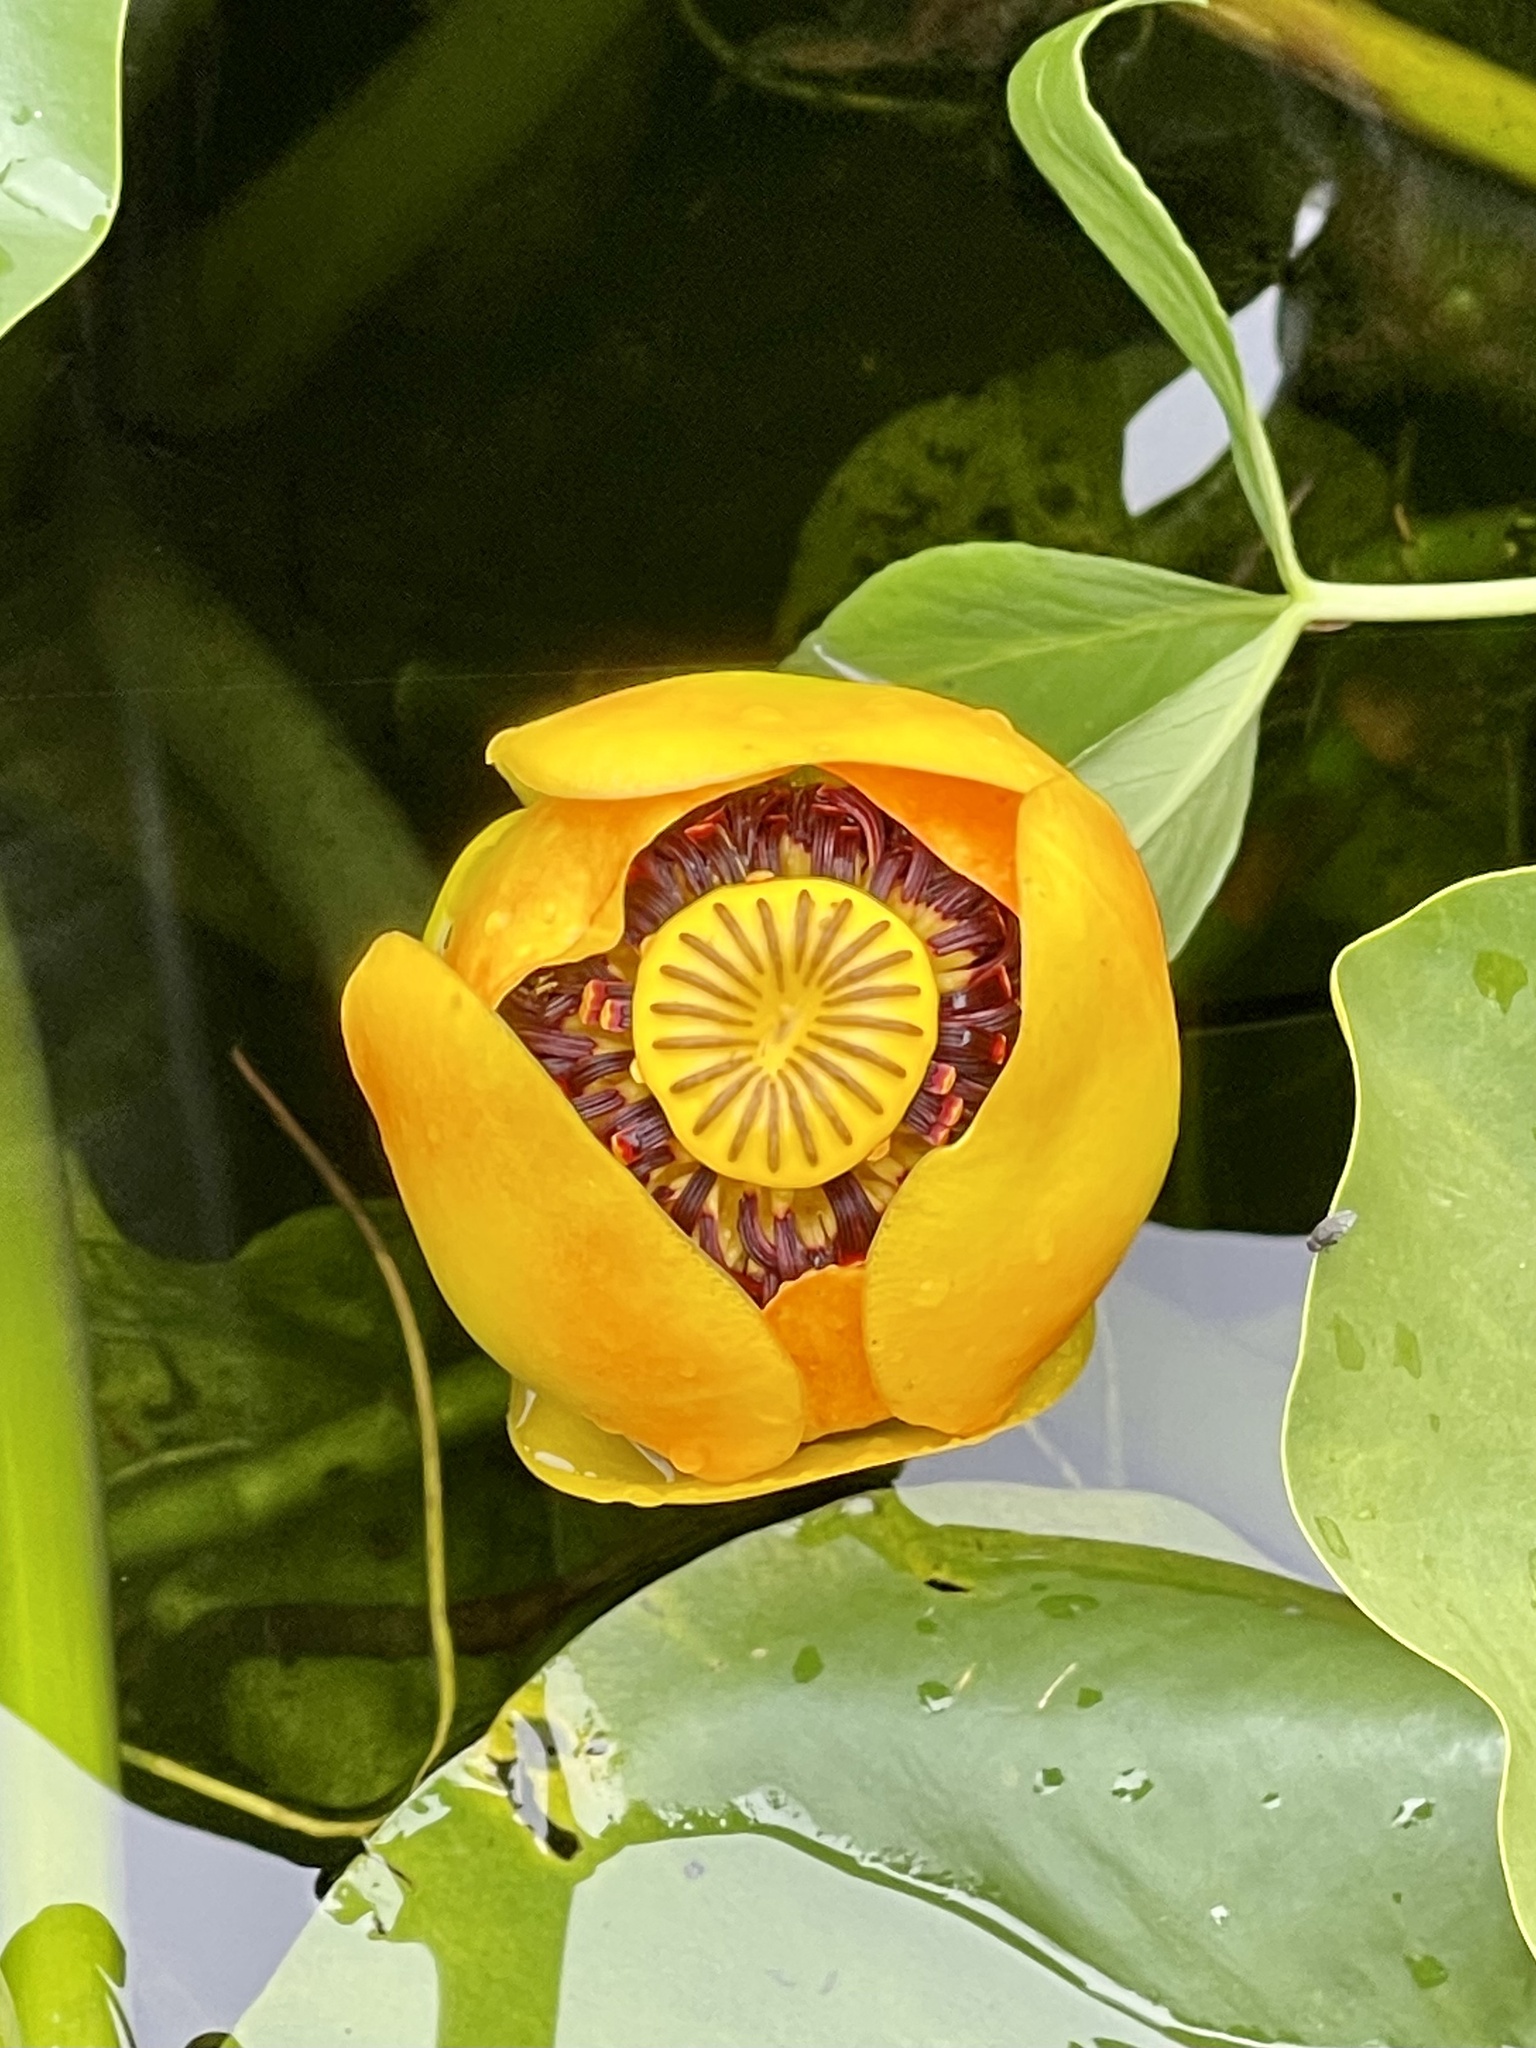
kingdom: Plantae
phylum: Tracheophyta
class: Magnoliopsida
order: Nymphaeales
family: Nymphaeaceae
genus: Nuphar
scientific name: Nuphar polysepala
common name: Rocky mountain cow-lily
